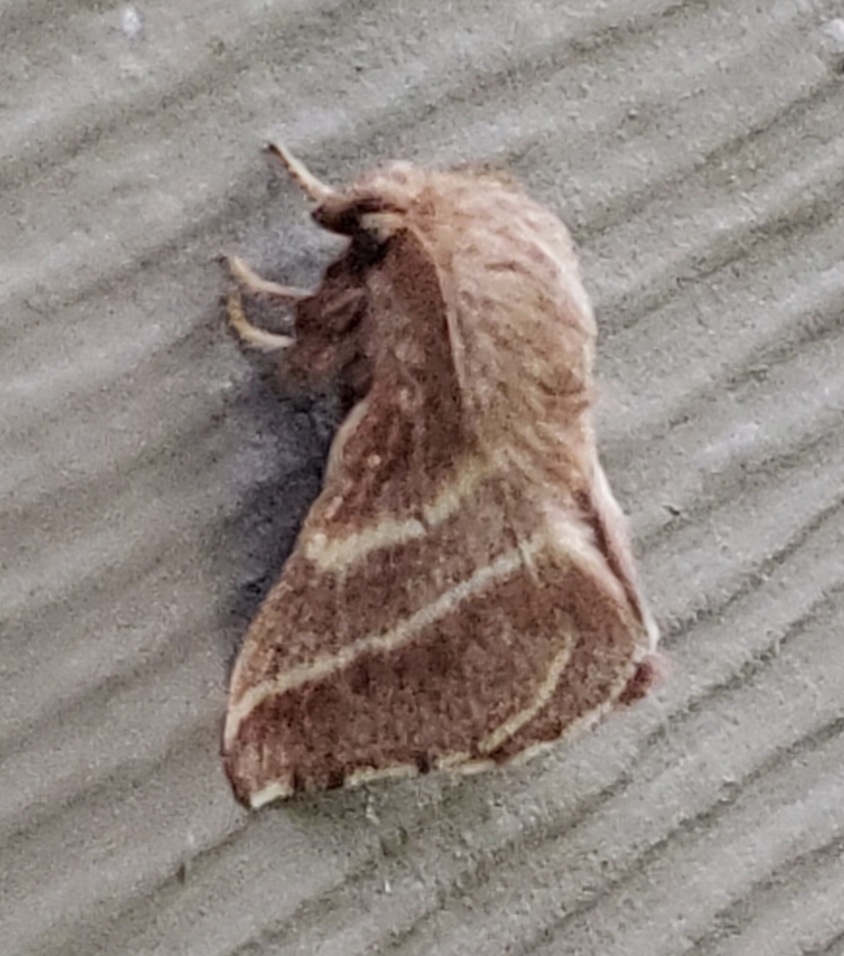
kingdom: Animalia
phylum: Arthropoda
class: Insecta
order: Lepidoptera
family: Lasiocampidae
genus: Malacosoma
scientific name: Malacosoma americana
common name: Eastern tent caterpillar moth
